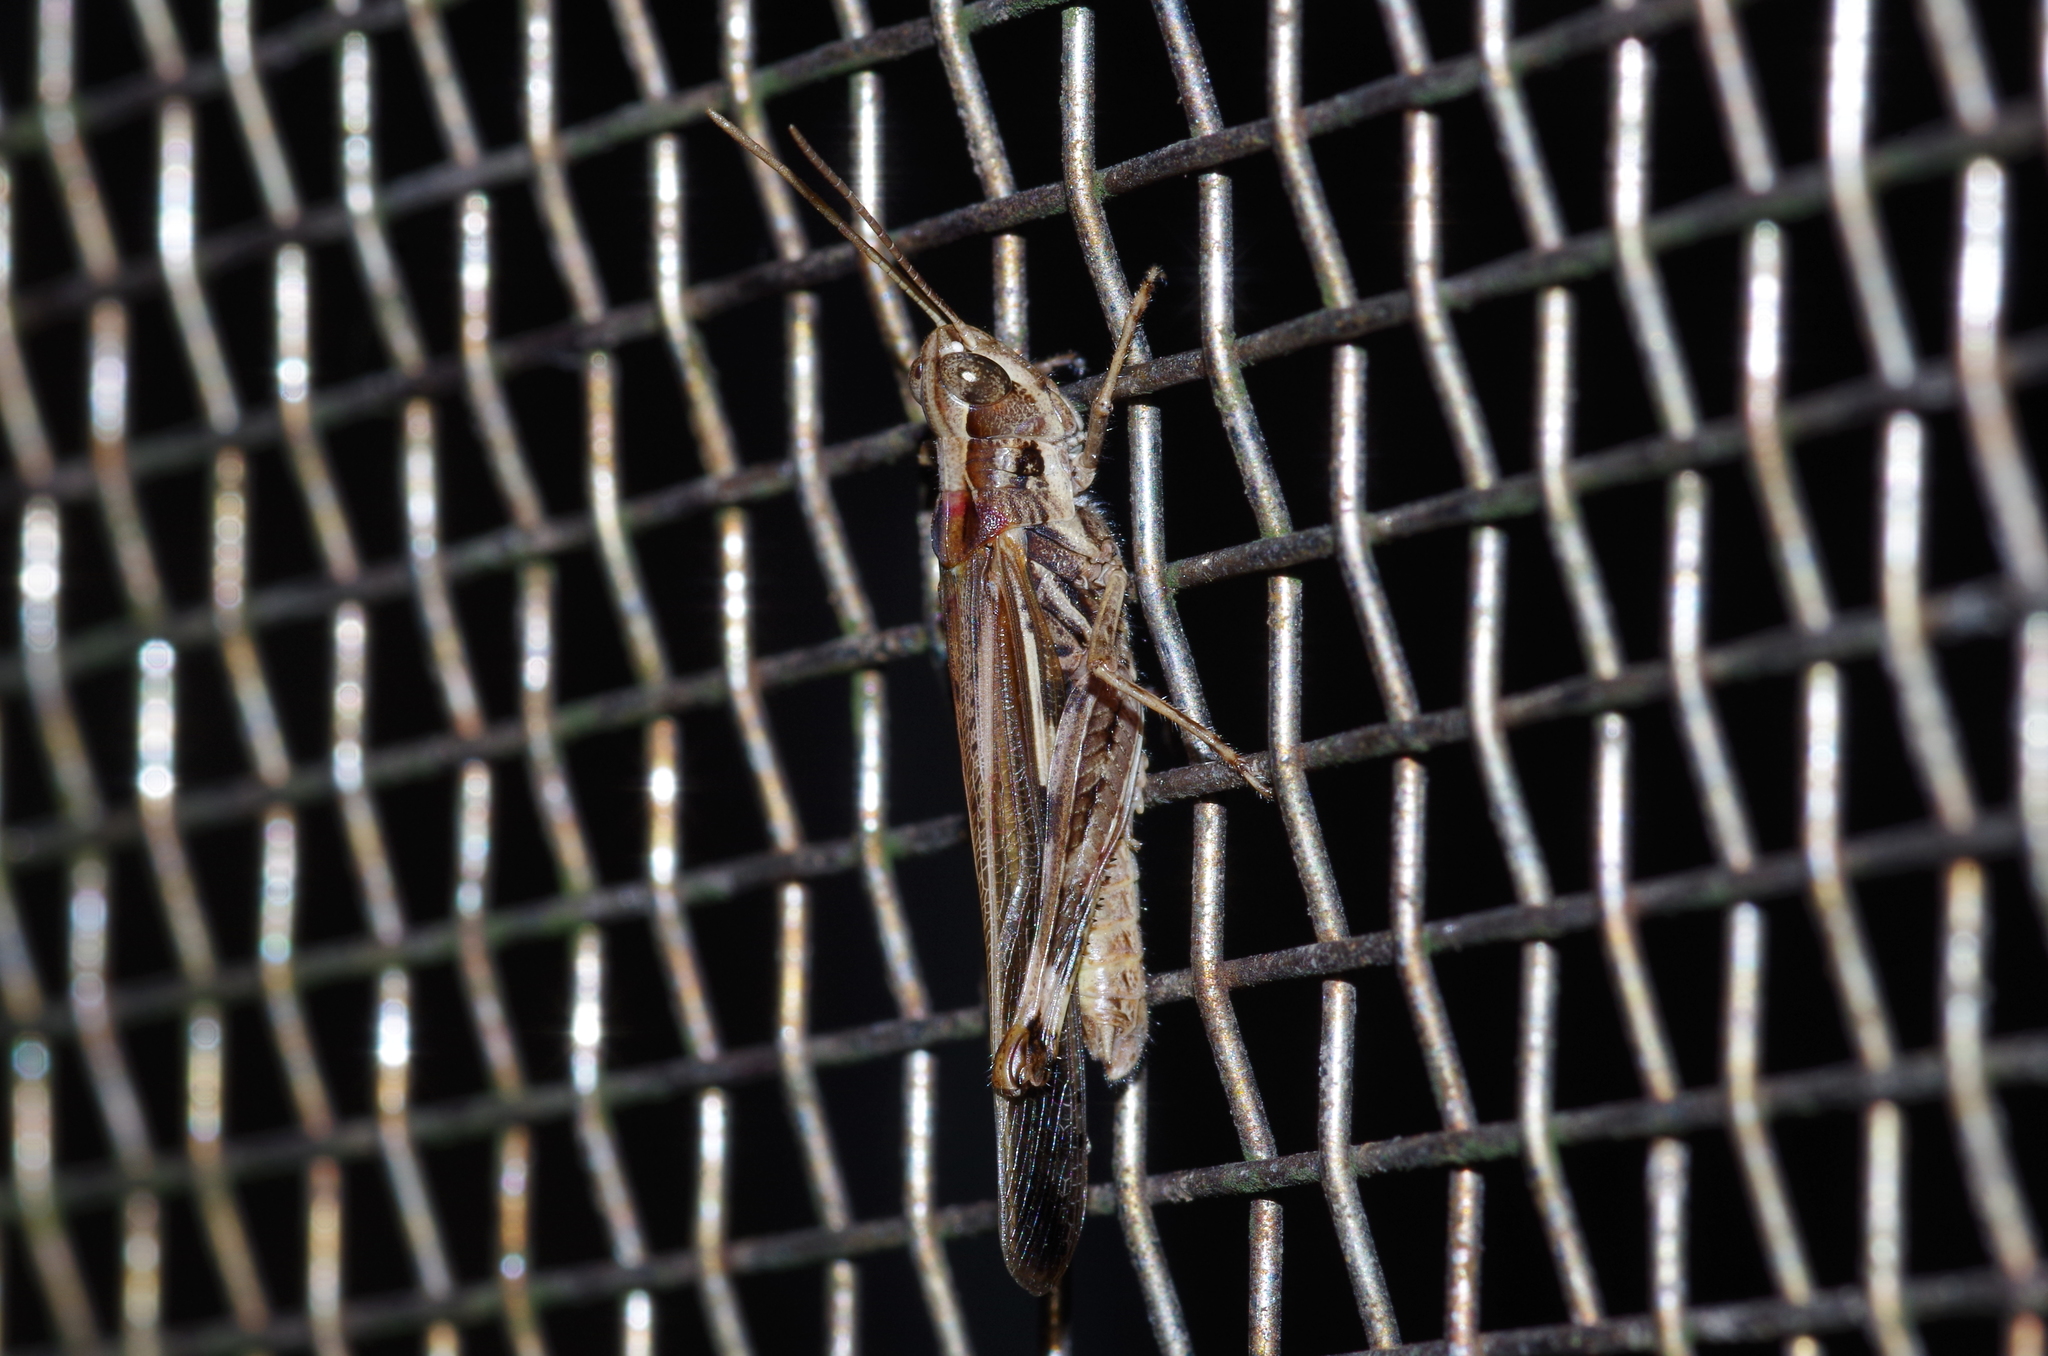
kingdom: Animalia
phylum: Arthropoda
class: Insecta
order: Orthoptera
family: Acrididae
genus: Aiolopus
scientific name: Aiolopus thalassinus
